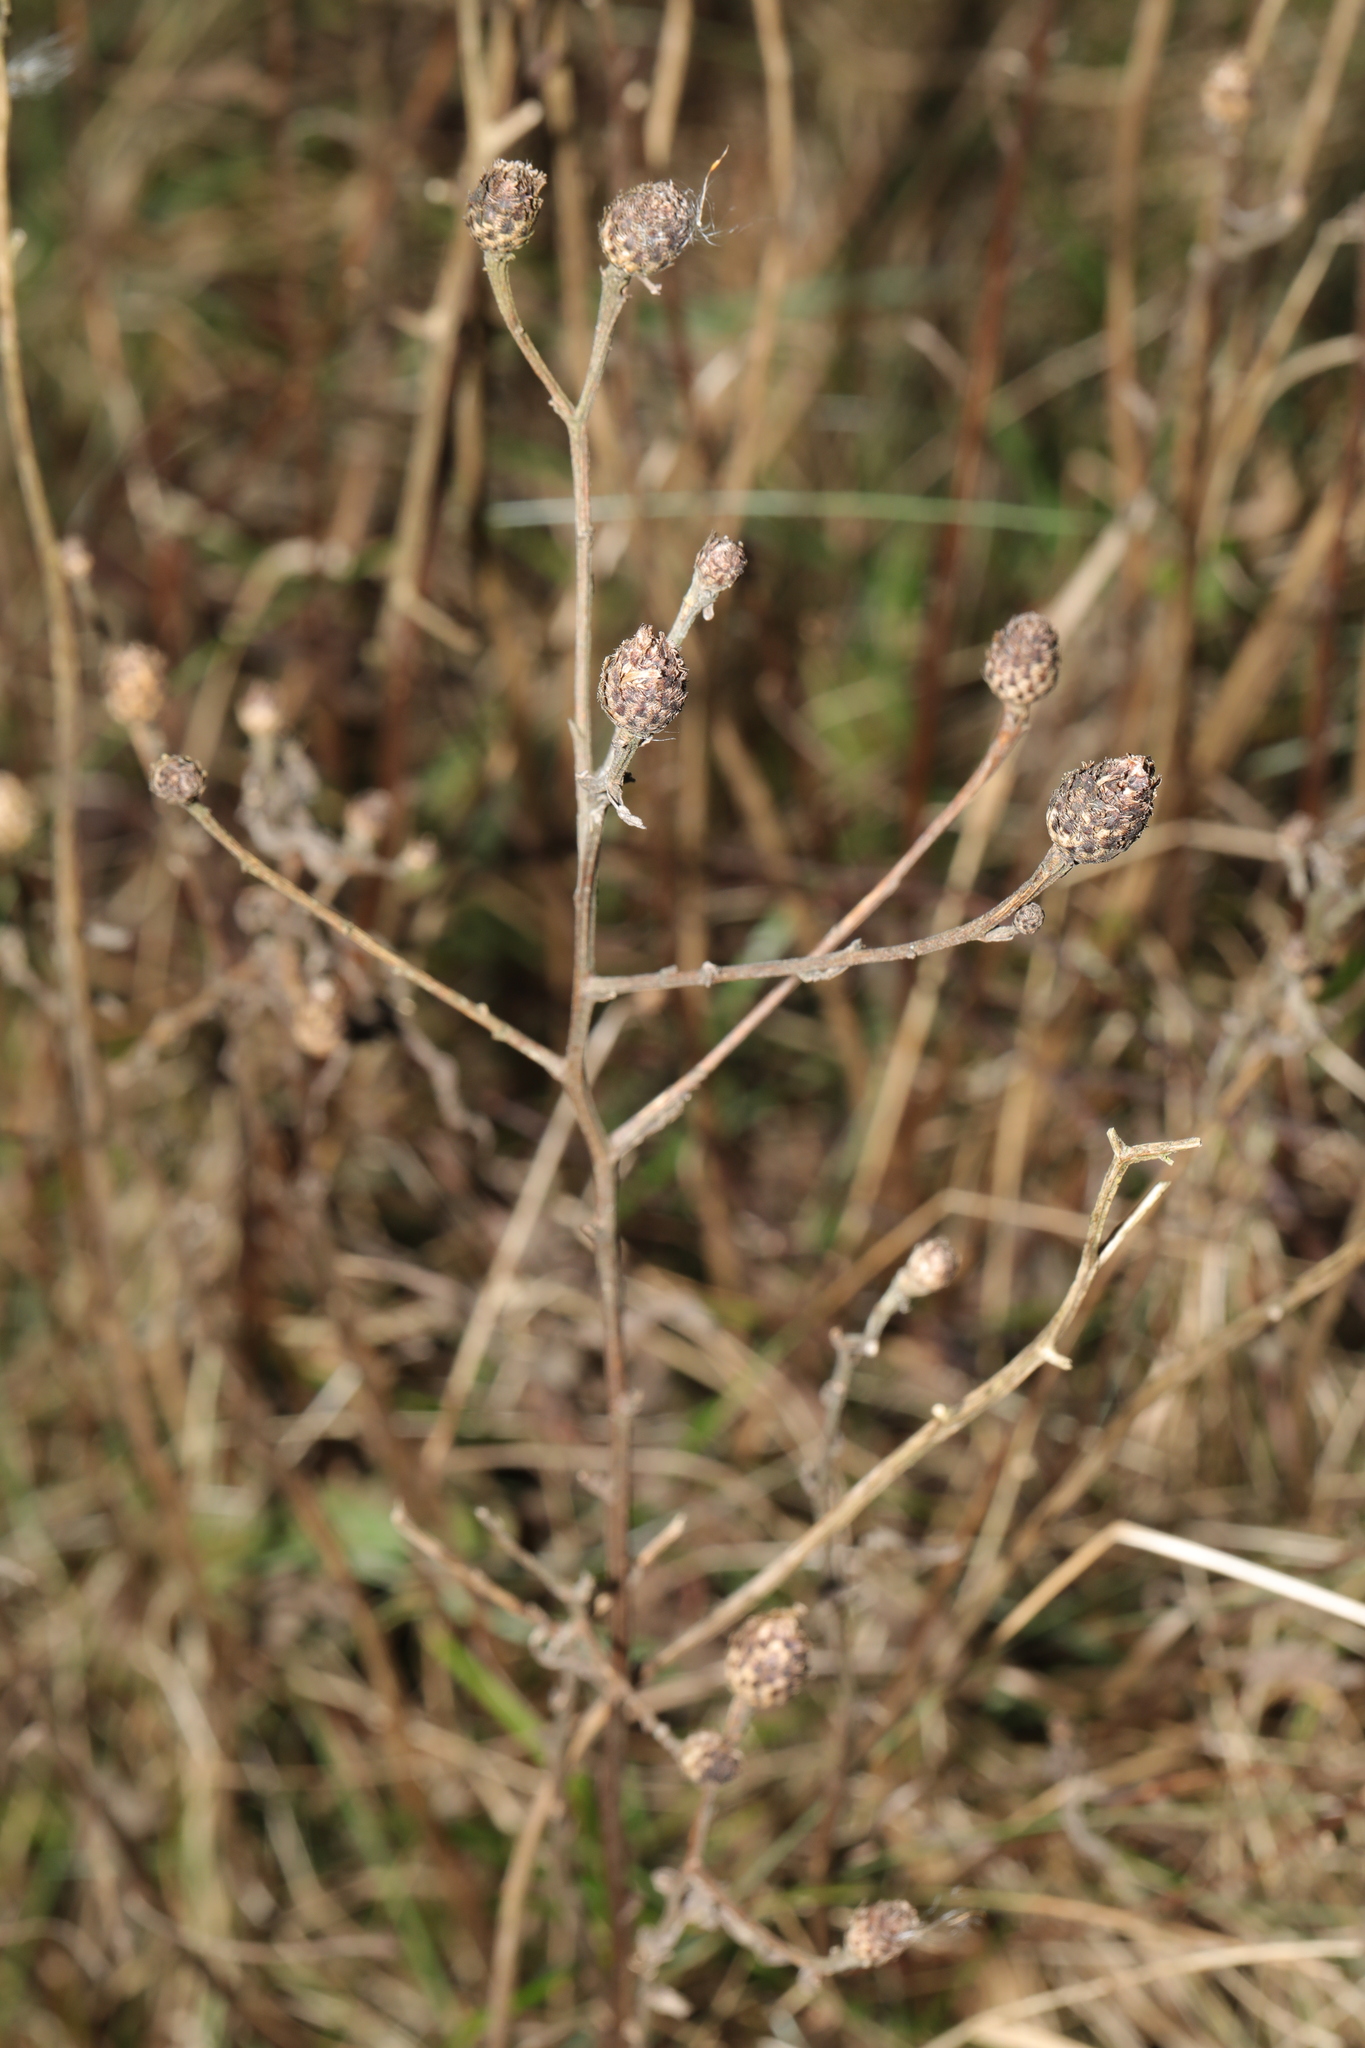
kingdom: Plantae
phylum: Tracheophyta
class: Magnoliopsida
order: Asterales
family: Asteraceae
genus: Centaurea
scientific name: Centaurea nigra
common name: Lesser knapweed
